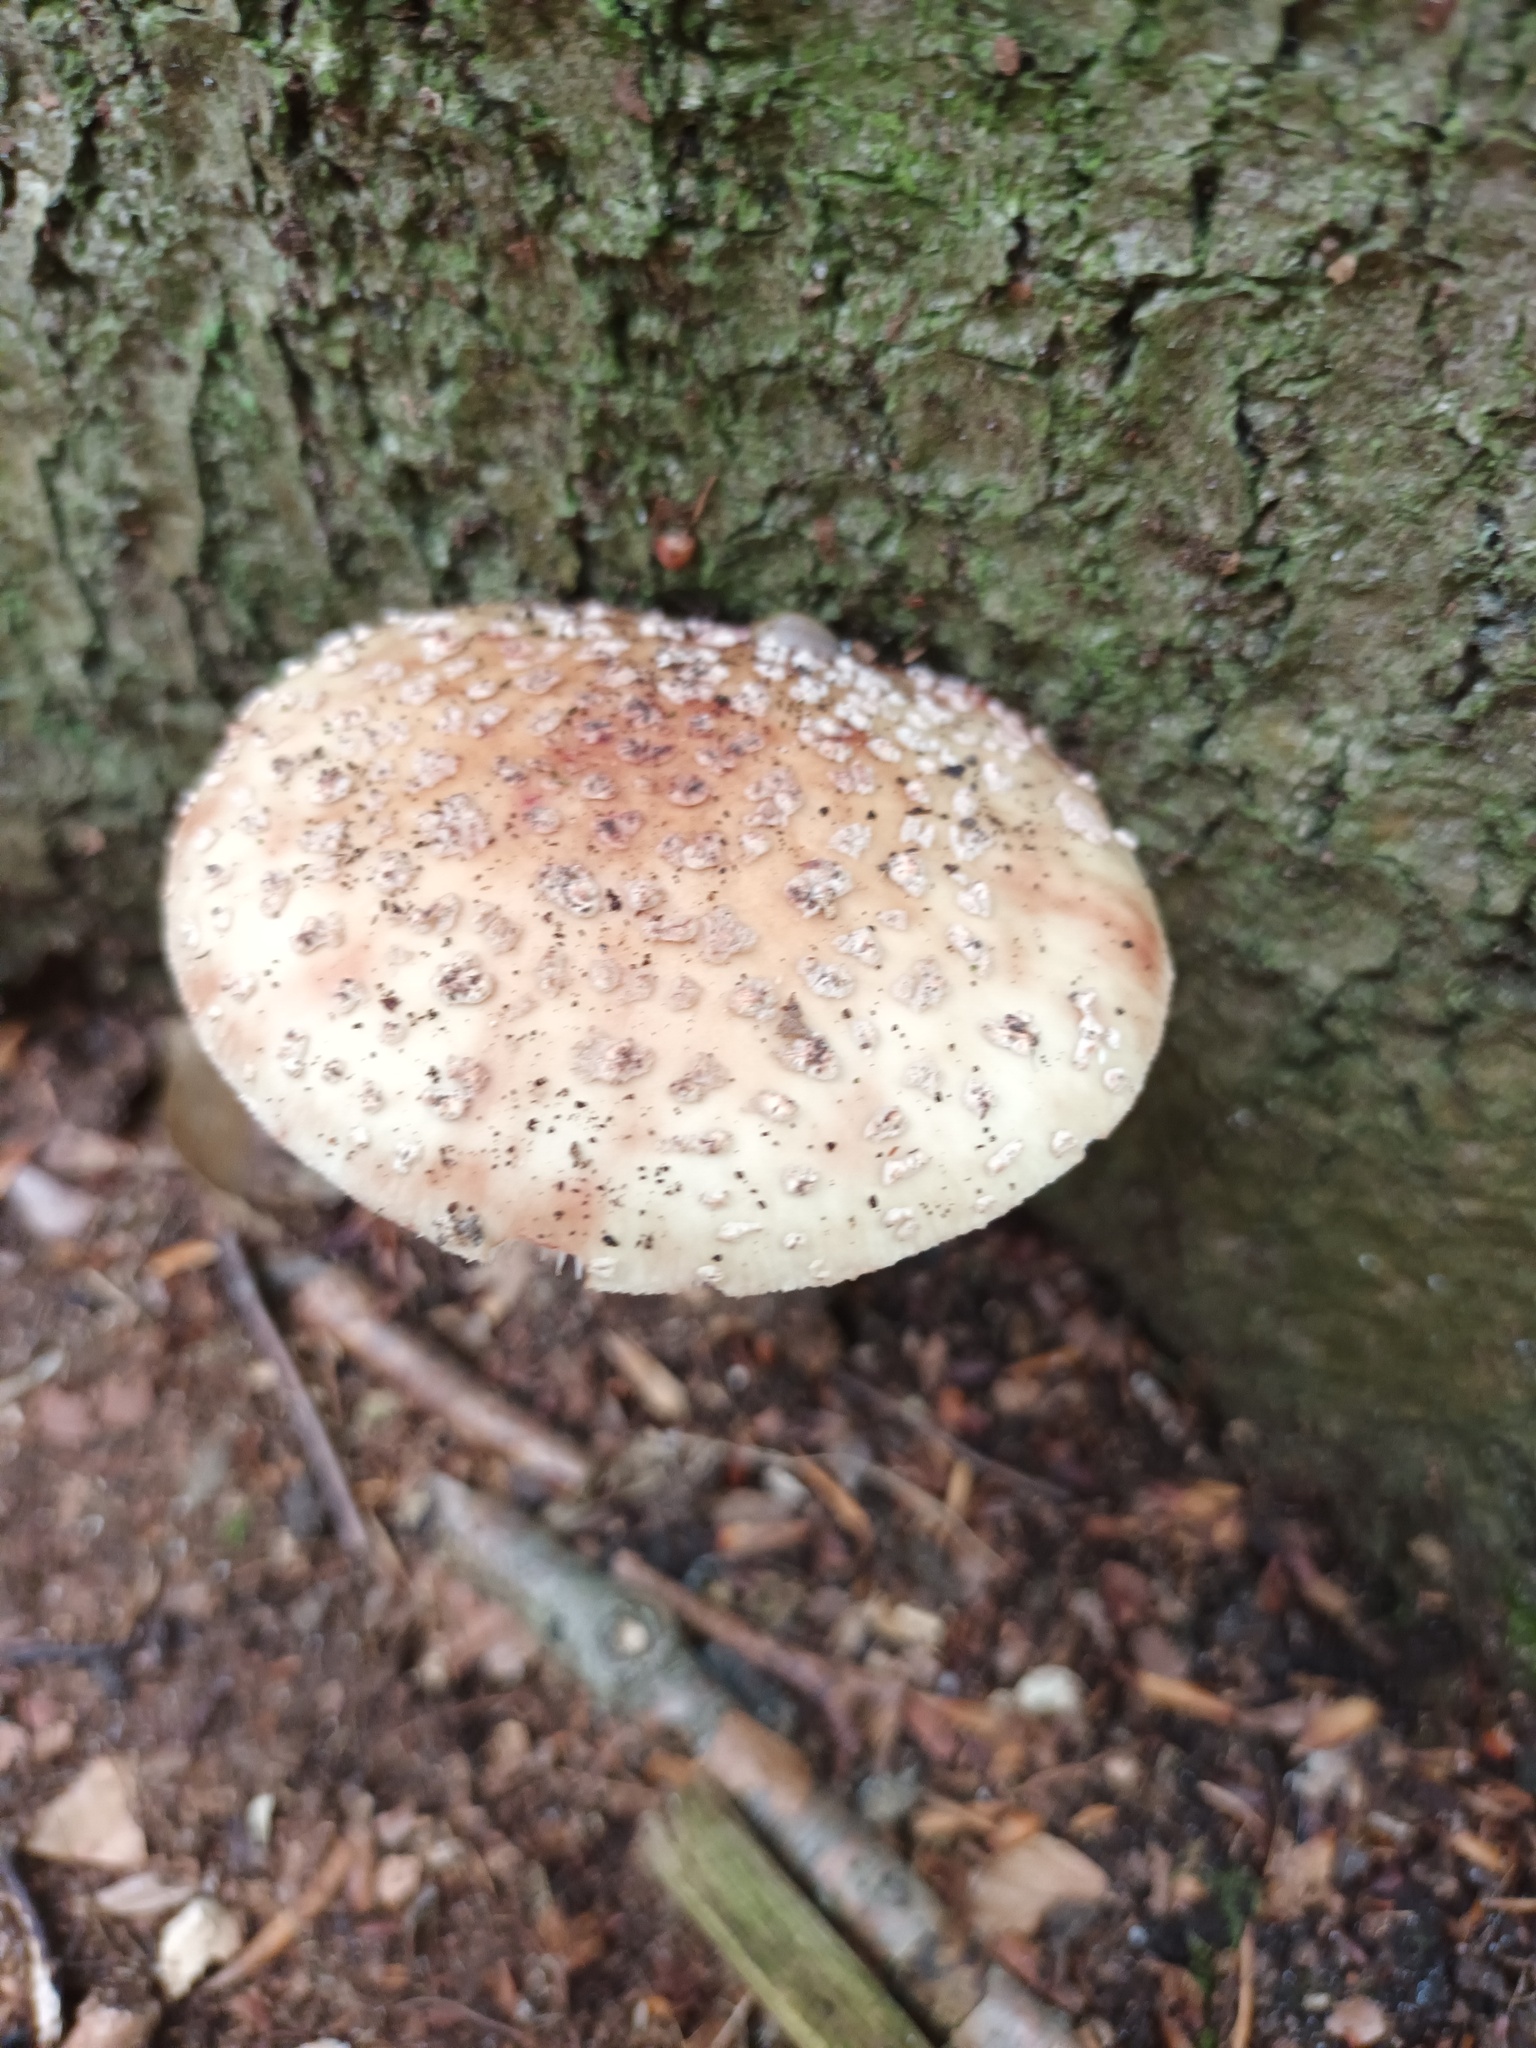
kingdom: Fungi
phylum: Basidiomycota
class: Agaricomycetes
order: Agaricales
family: Amanitaceae
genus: Amanita
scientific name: Amanita rubescens
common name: Blusher
